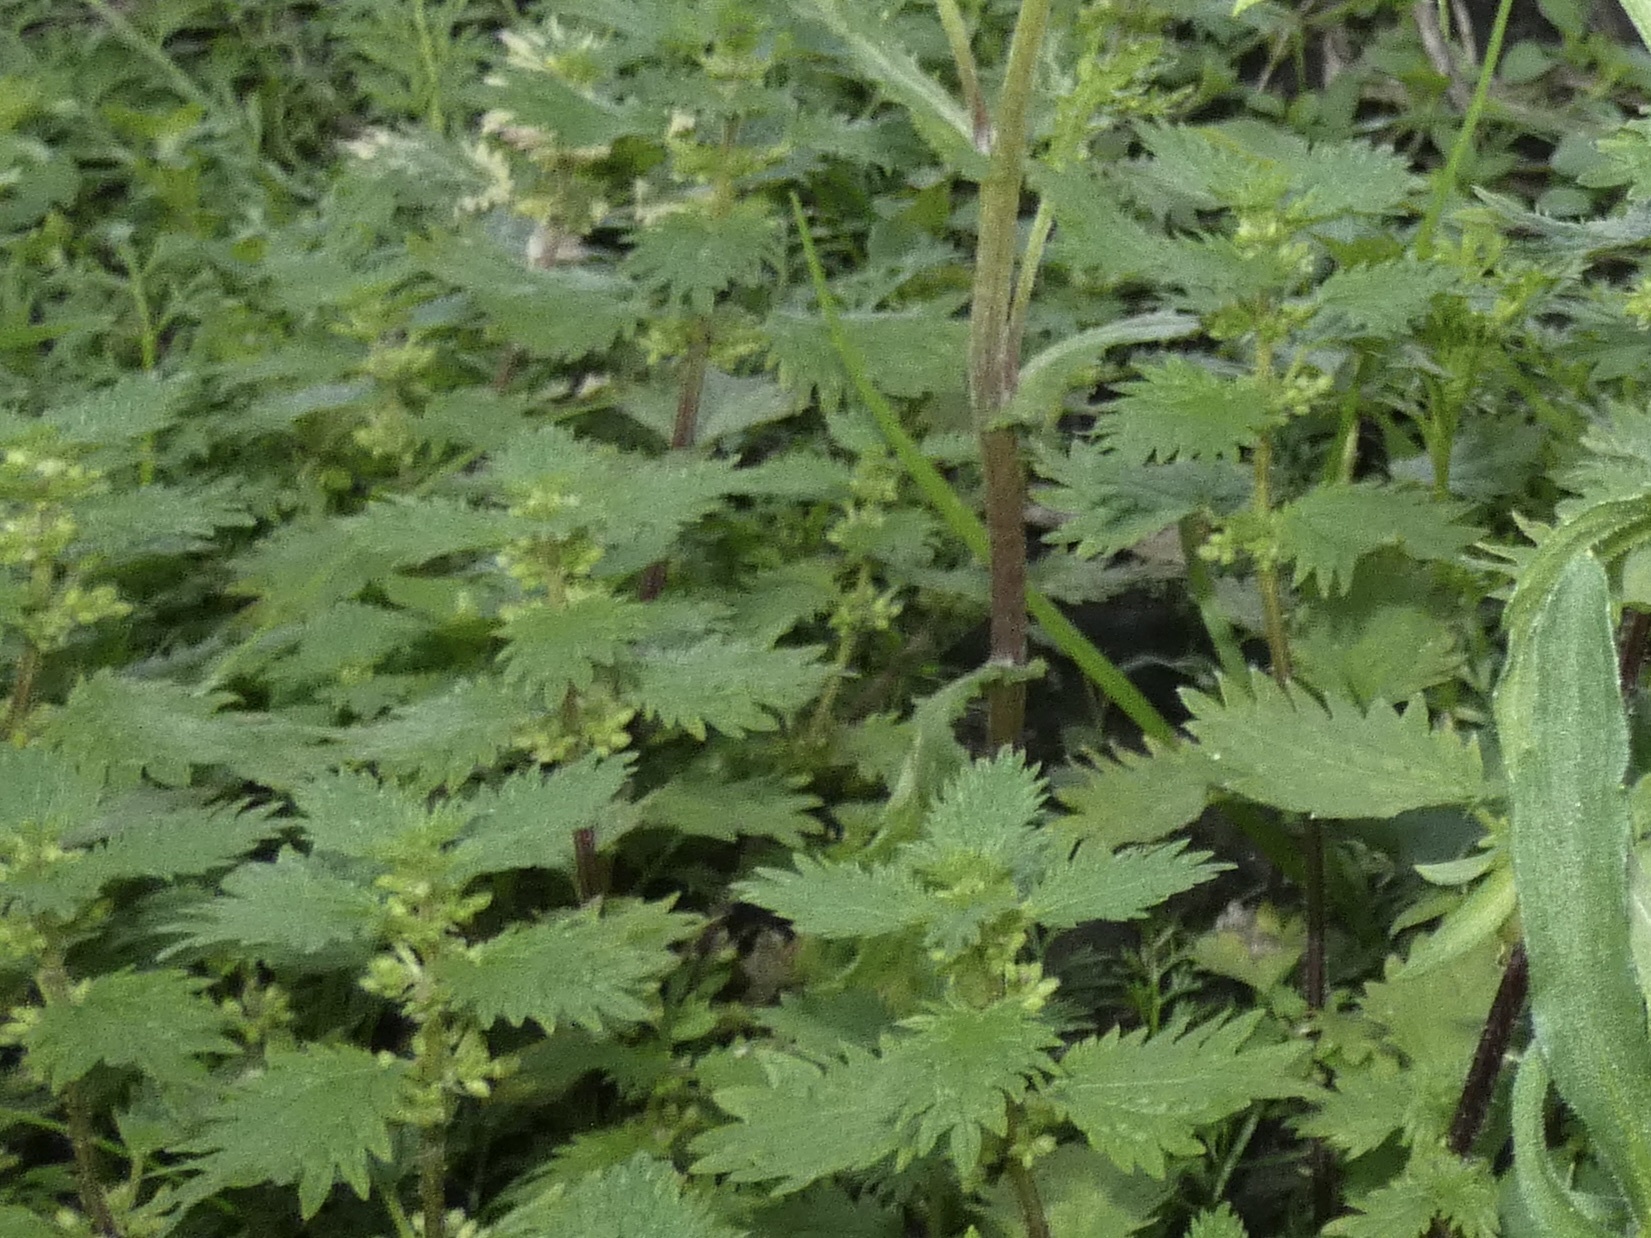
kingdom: Plantae
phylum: Tracheophyta
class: Magnoliopsida
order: Rosales
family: Urticaceae
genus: Urtica
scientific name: Urtica urens
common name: Dwarf nettle
